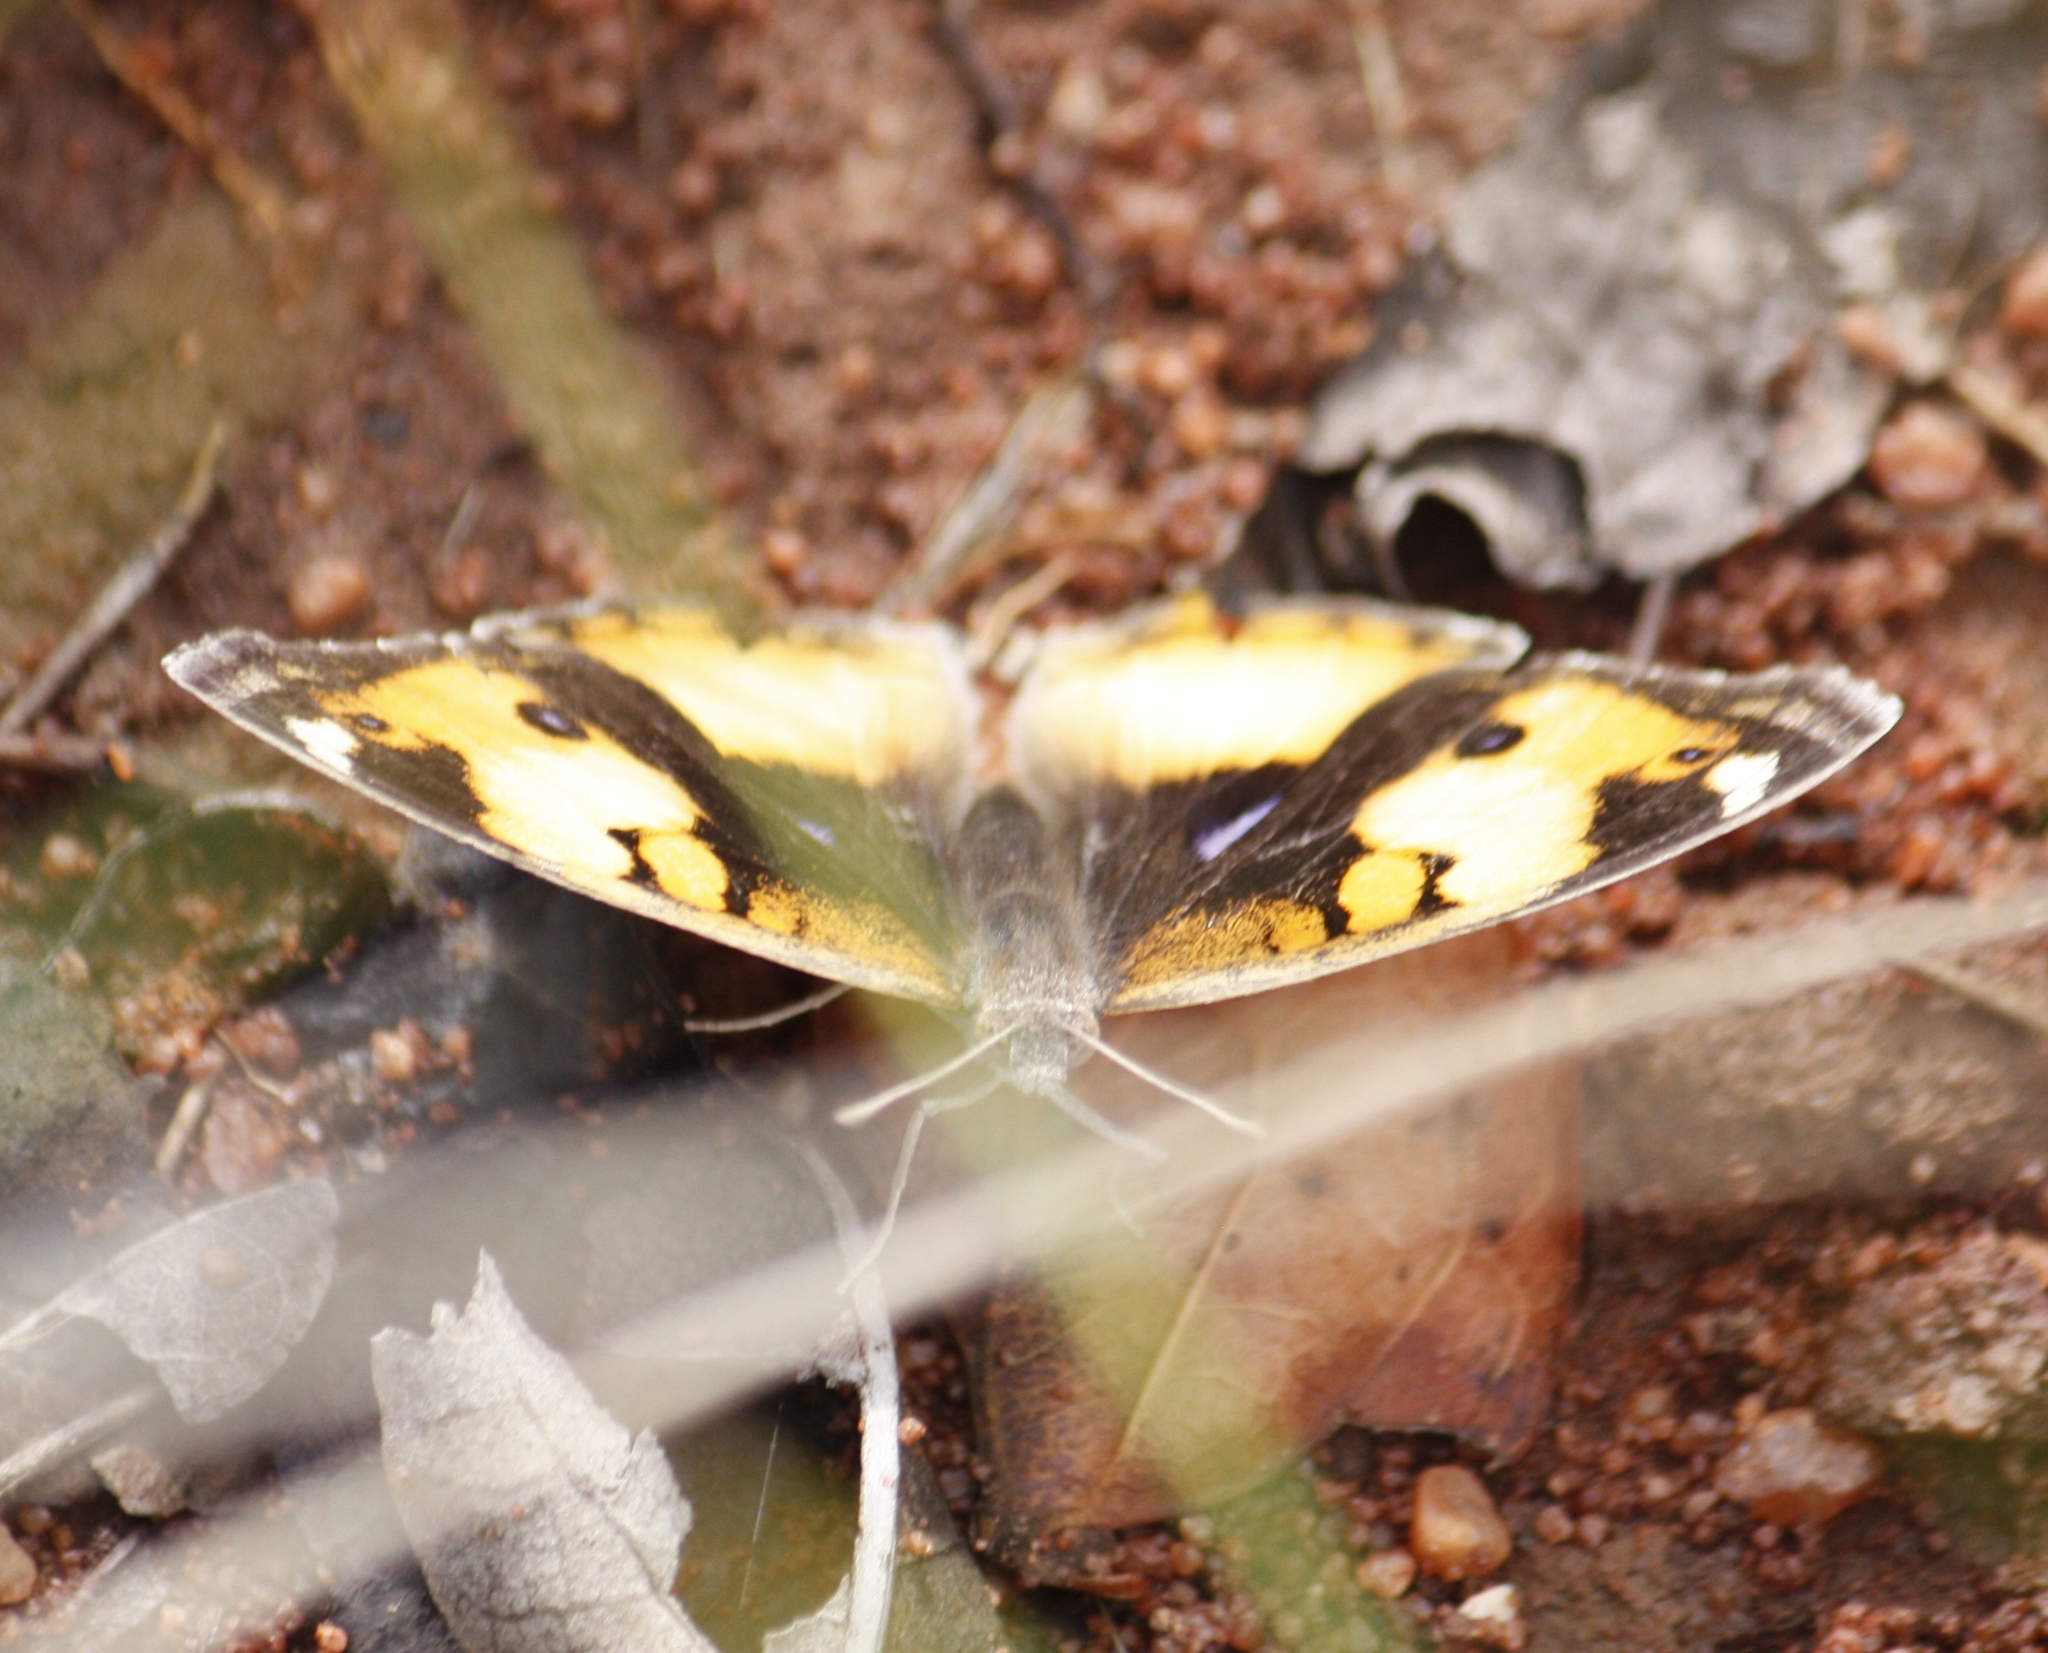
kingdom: Animalia
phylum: Arthropoda
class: Insecta
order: Lepidoptera
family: Nymphalidae
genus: Junonia
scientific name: Junonia hierta
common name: Yellow pansy
